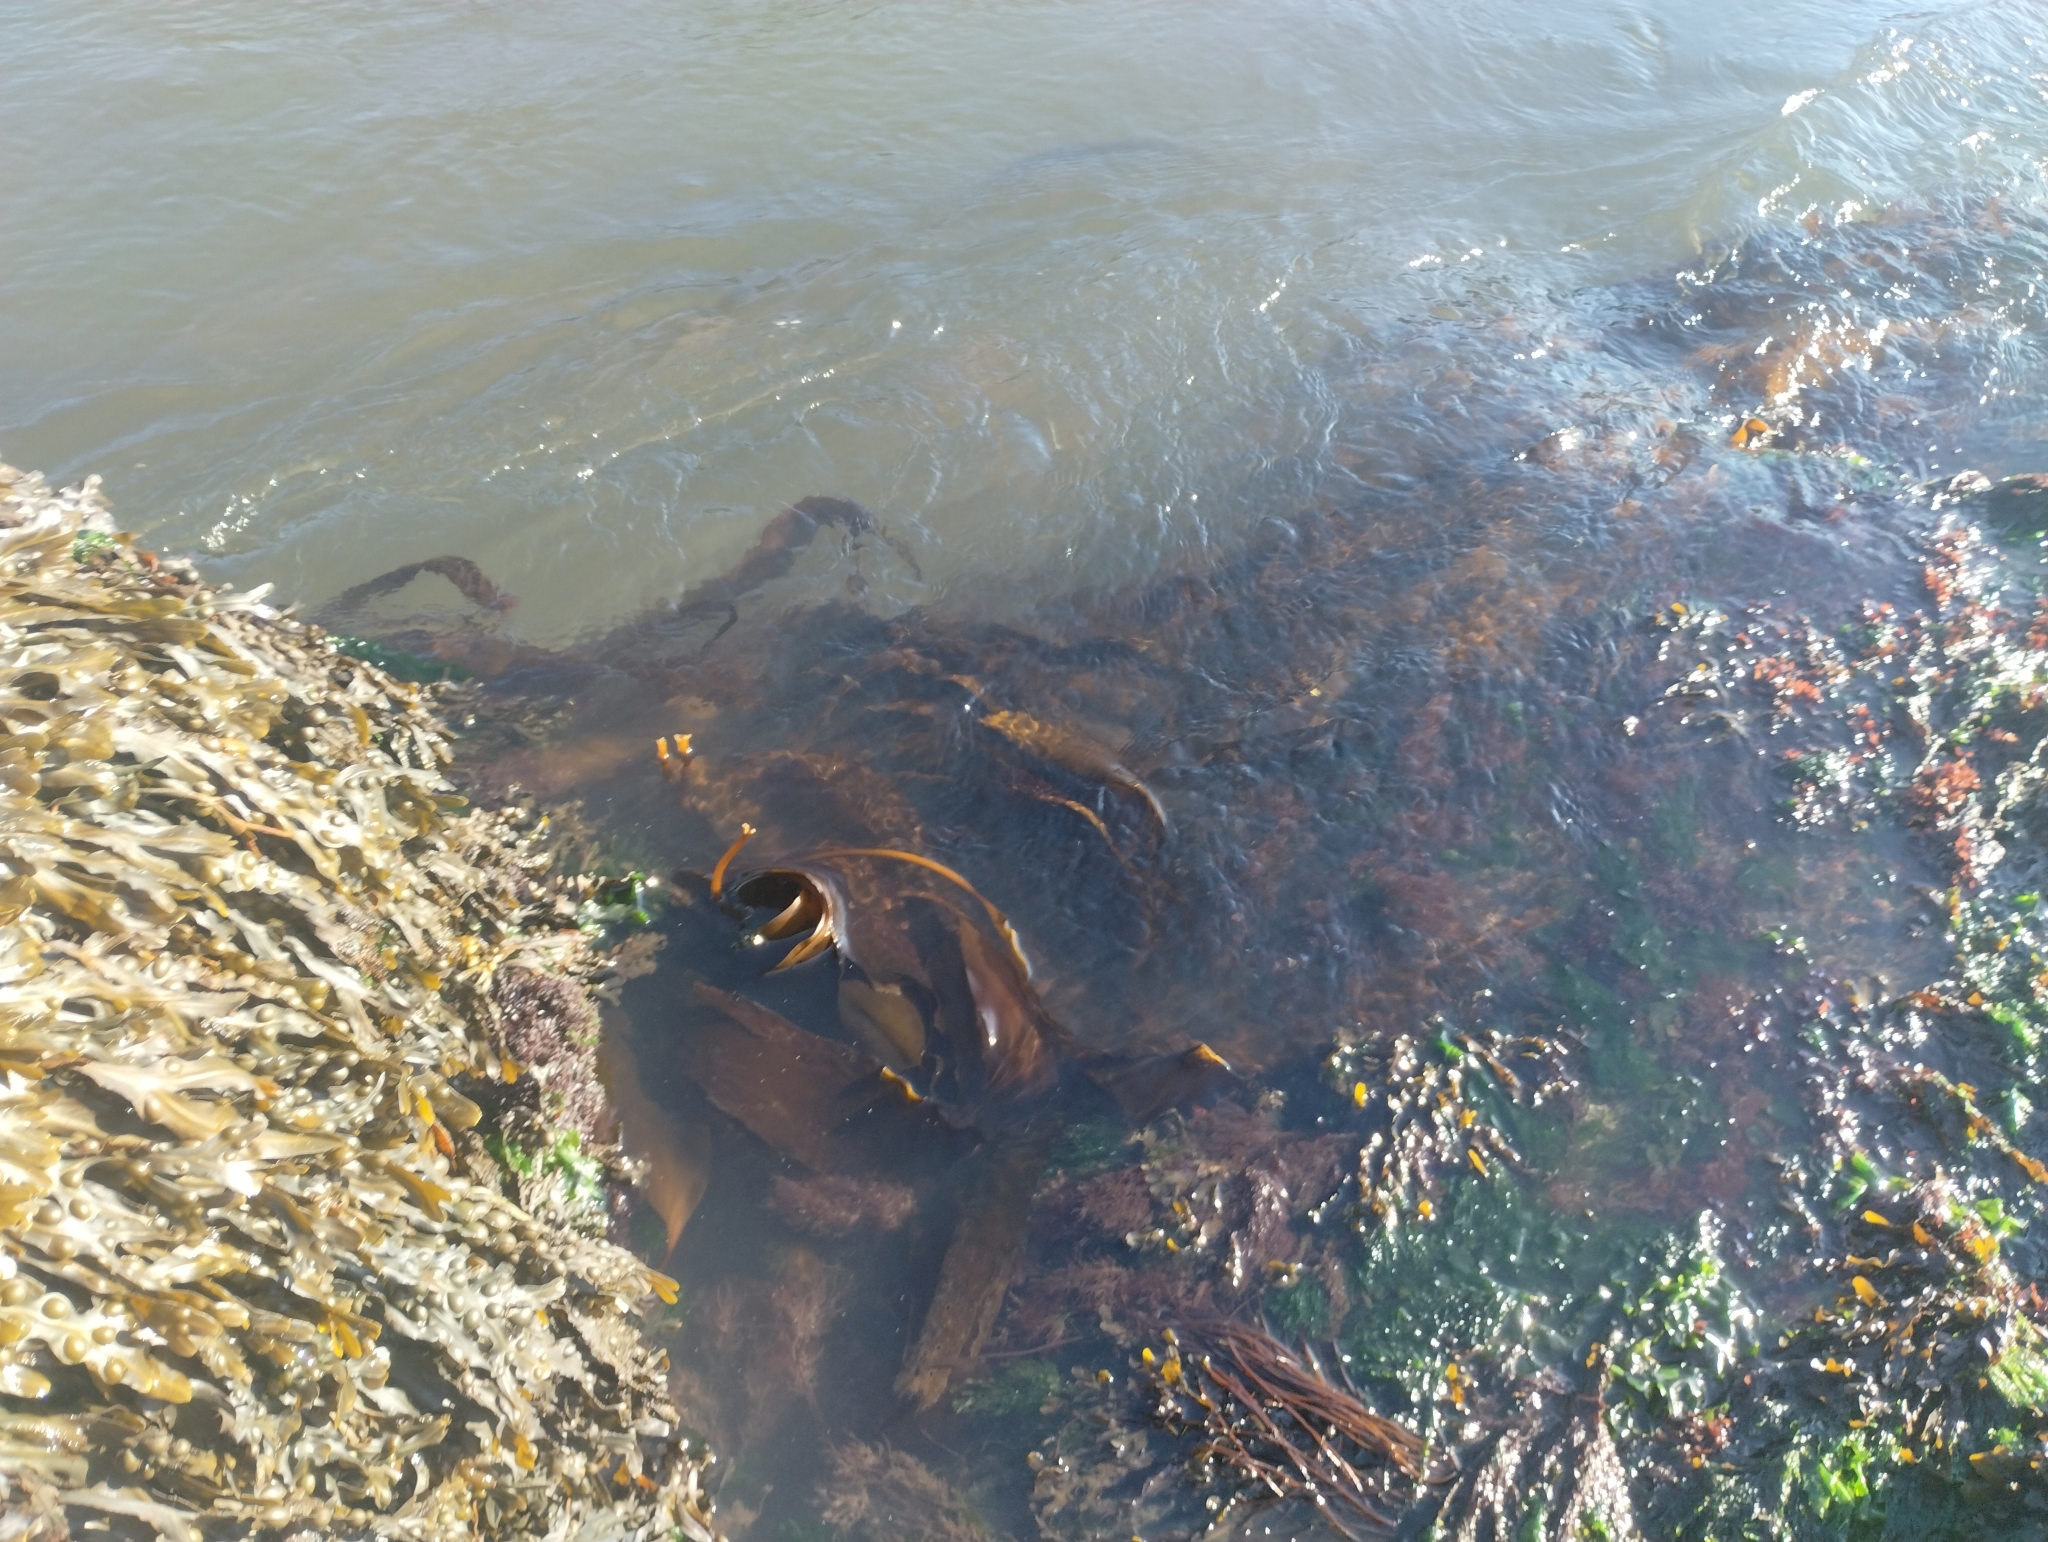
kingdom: Chromista
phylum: Ochrophyta
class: Phaeophyceae
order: Laminariales
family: Laminariaceae
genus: Saccharina
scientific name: Saccharina latissima
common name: Poor man's weather glass
